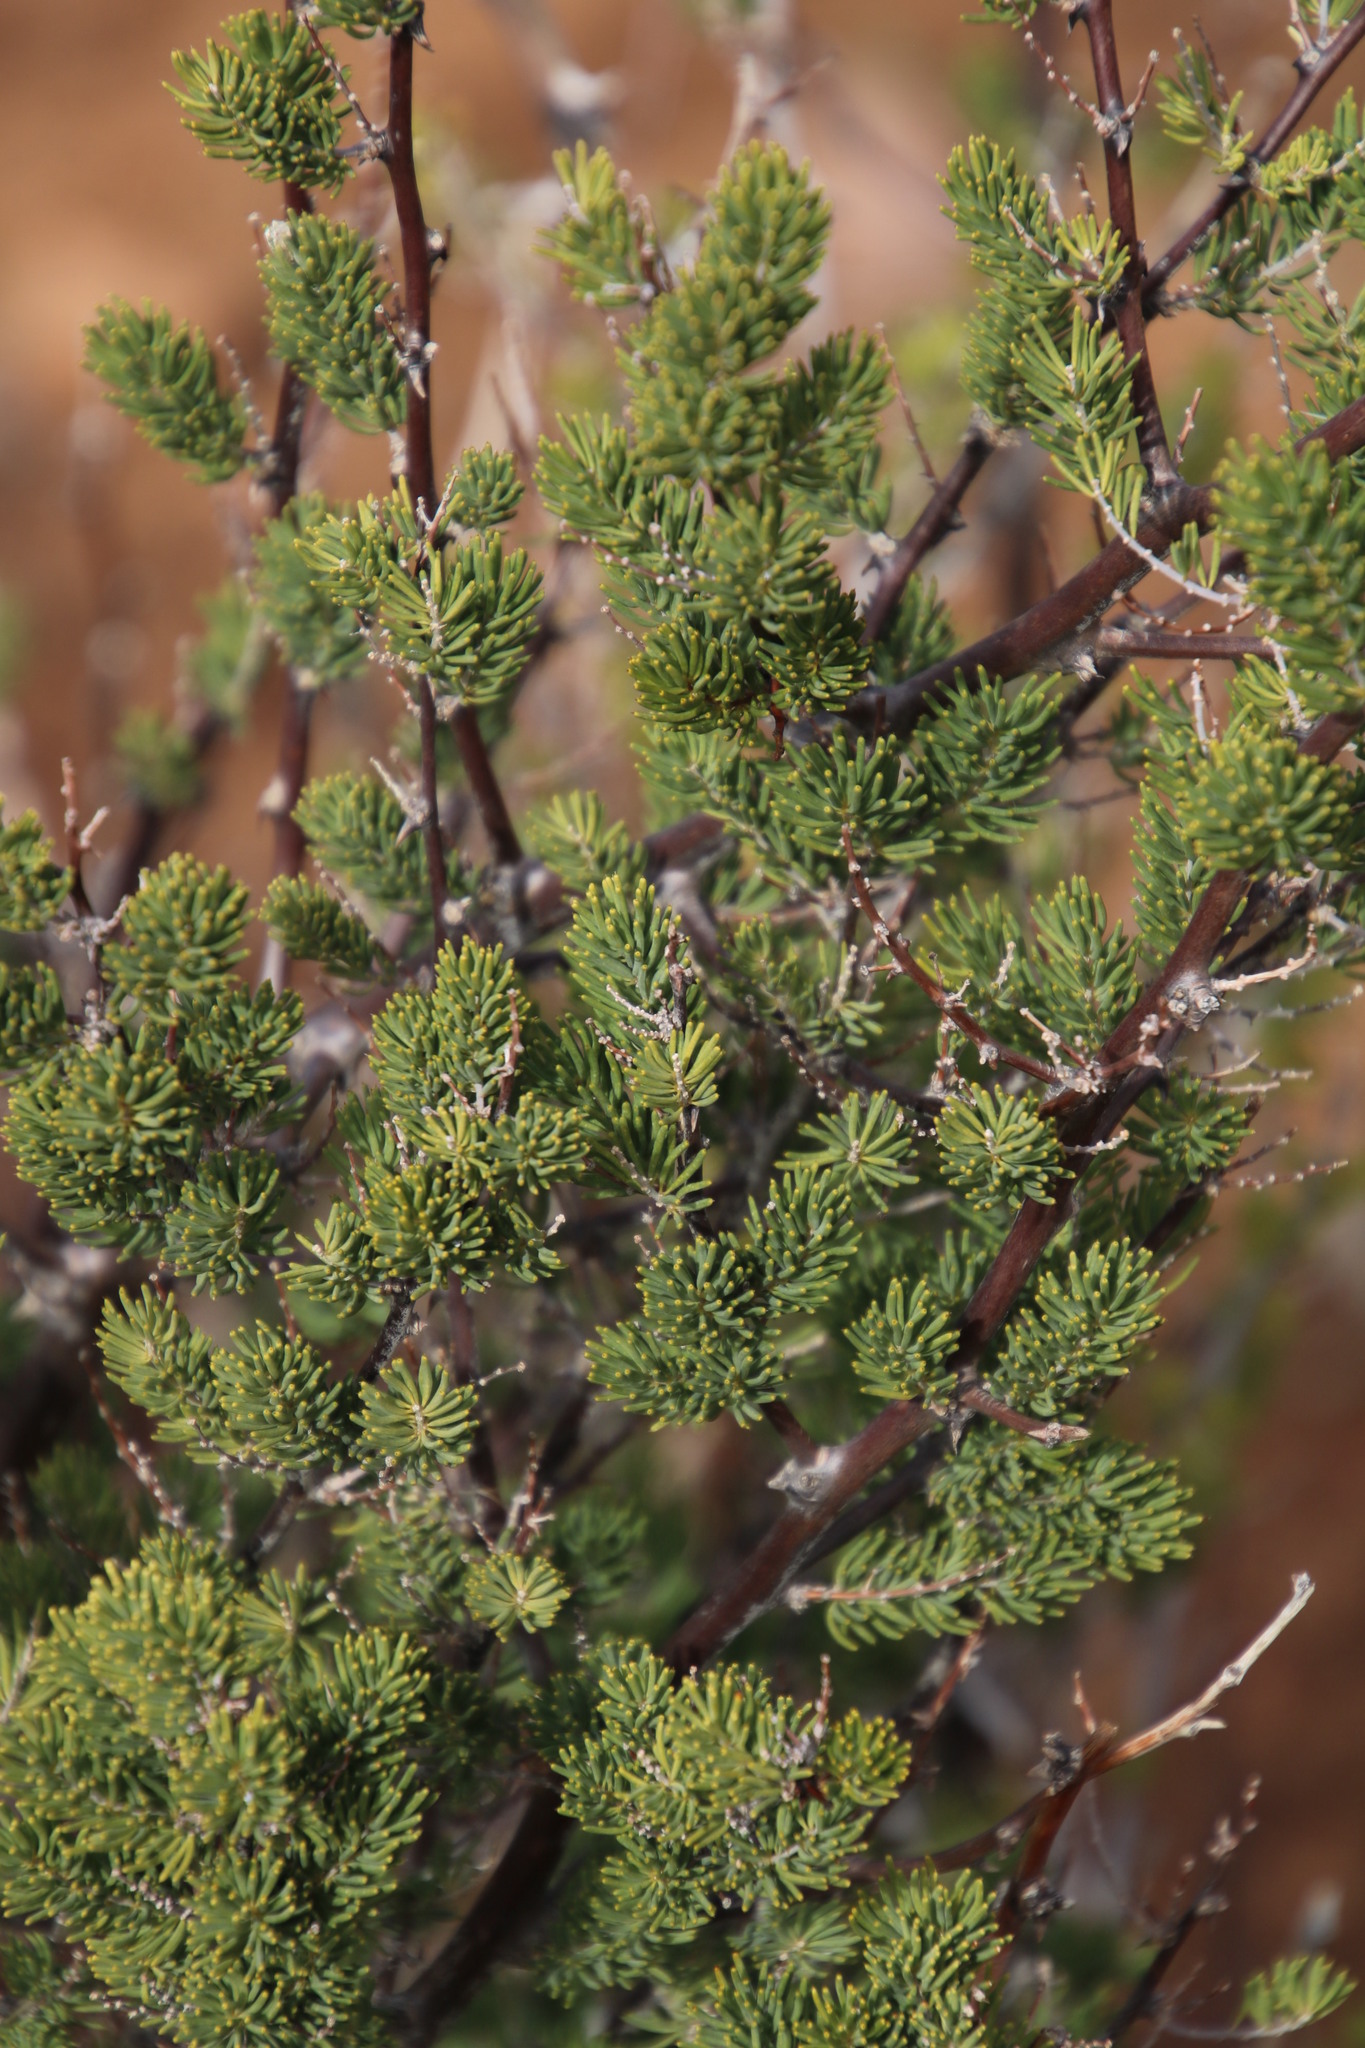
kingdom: Plantae
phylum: Tracheophyta
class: Liliopsida
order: Asparagales
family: Asparagaceae
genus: Asparagus
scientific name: Asparagus mucronatus
